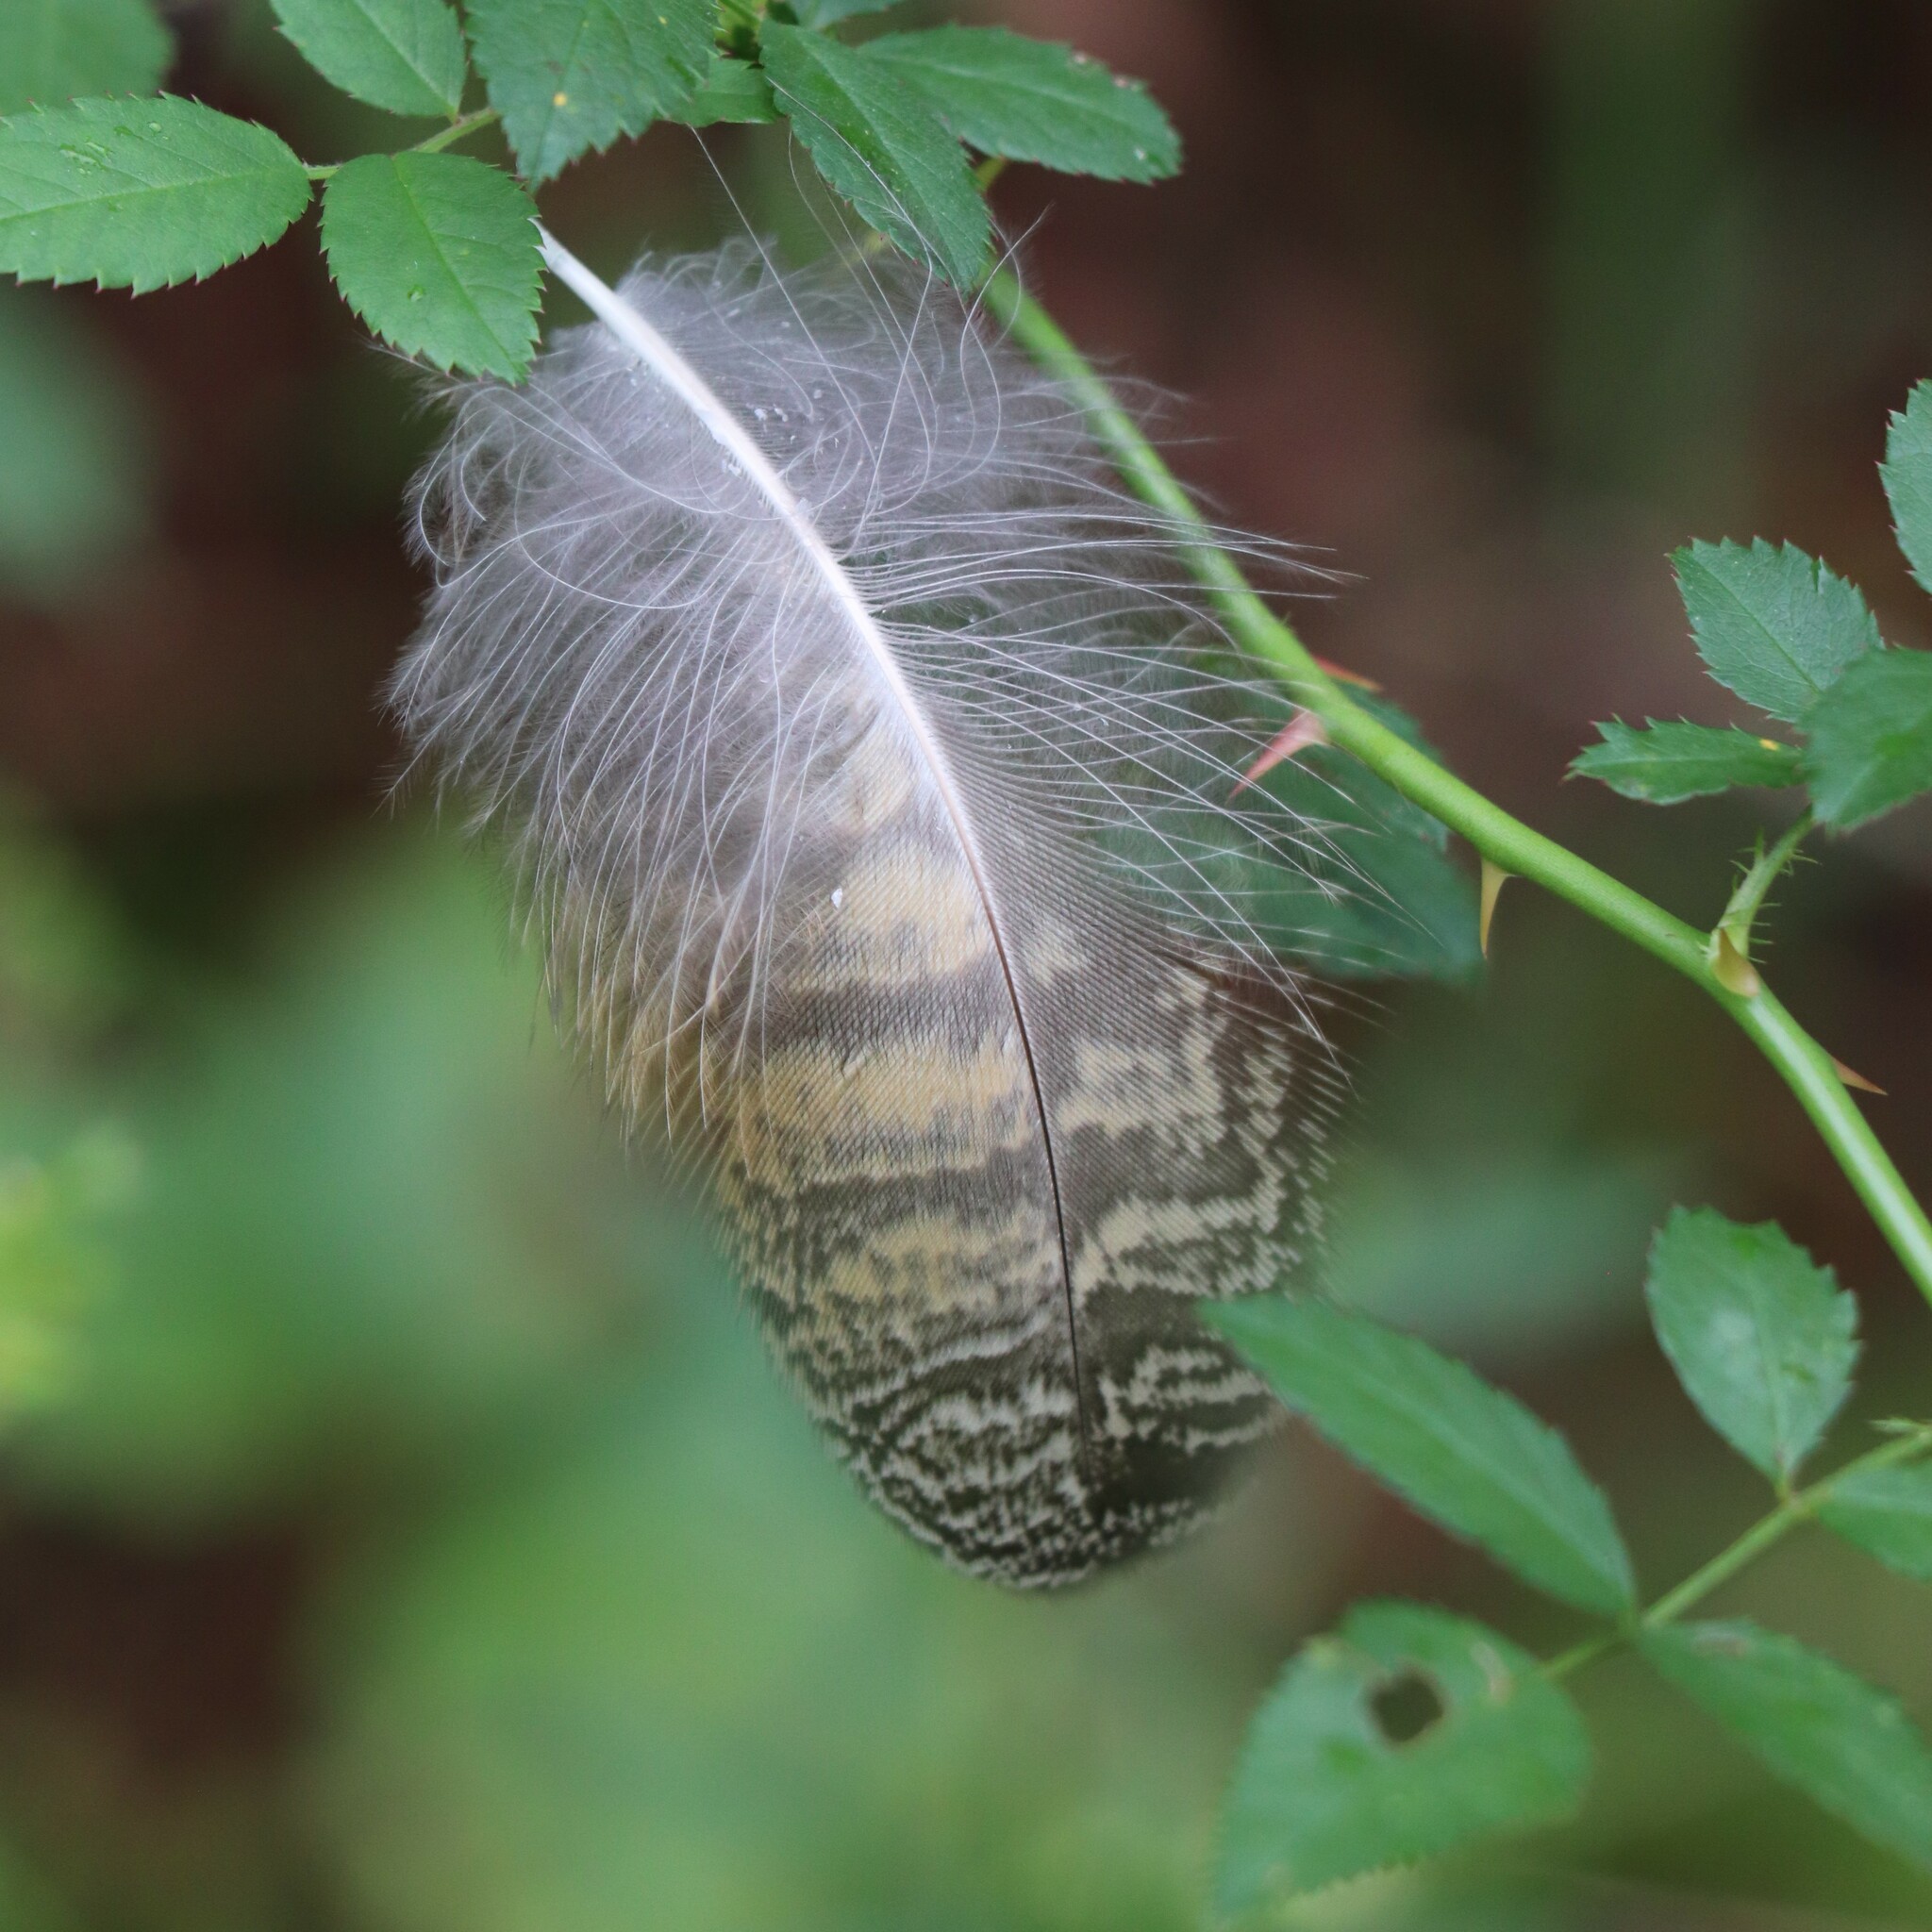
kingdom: Animalia
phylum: Chordata
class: Aves
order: Strigiformes
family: Strigidae
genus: Bubo
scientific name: Bubo virginianus
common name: Great horned owl
